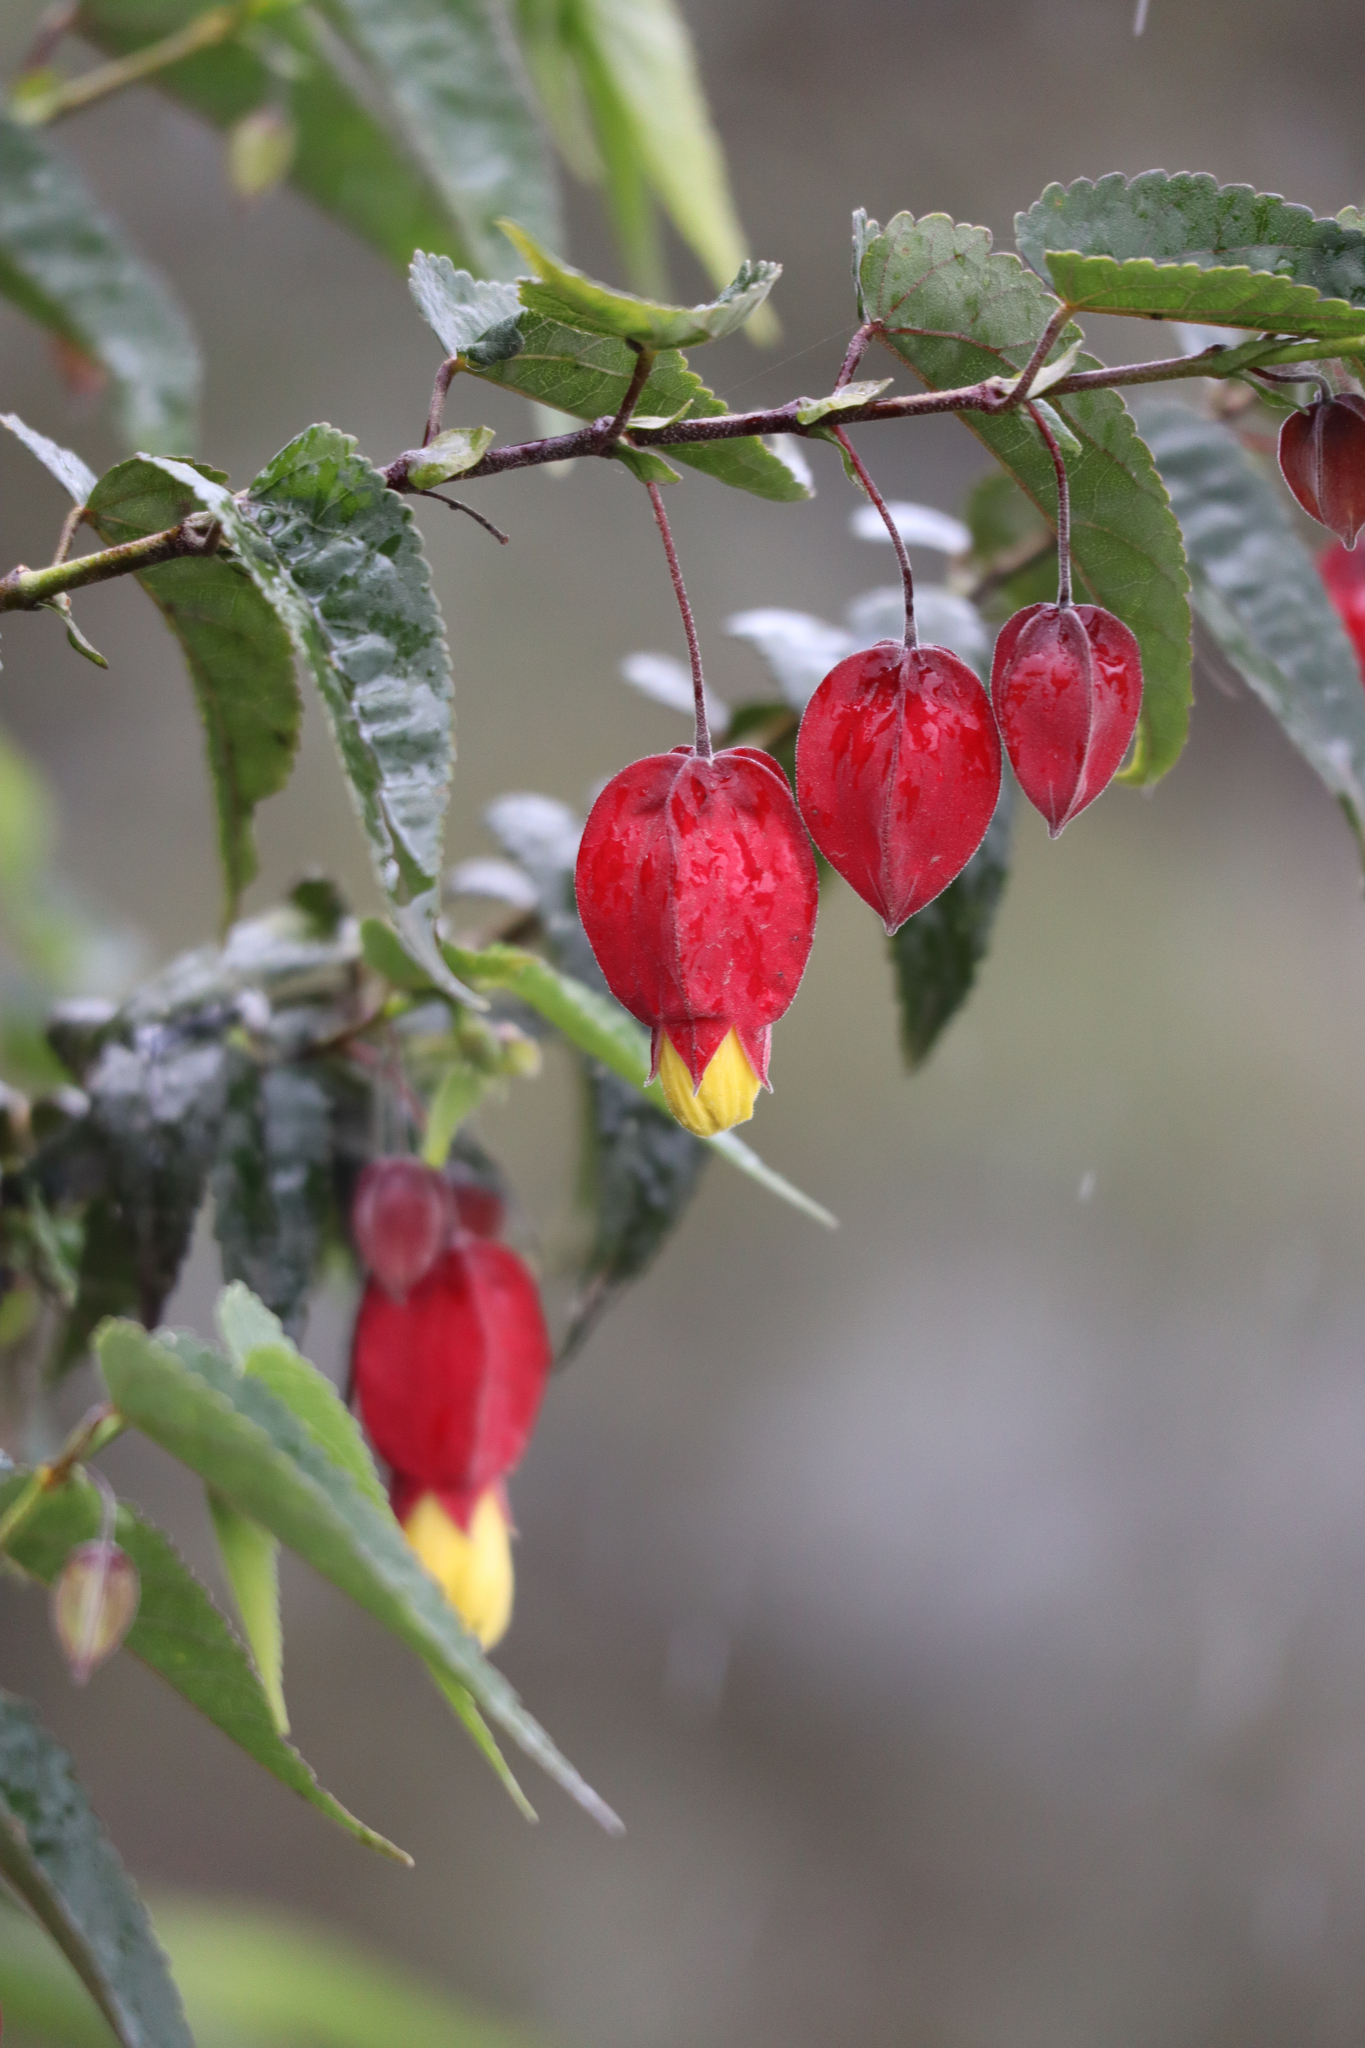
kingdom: Plantae
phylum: Tracheophyta
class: Magnoliopsida
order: Malvales
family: Malvaceae
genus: Callianthe
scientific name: Callianthe megapotamica
